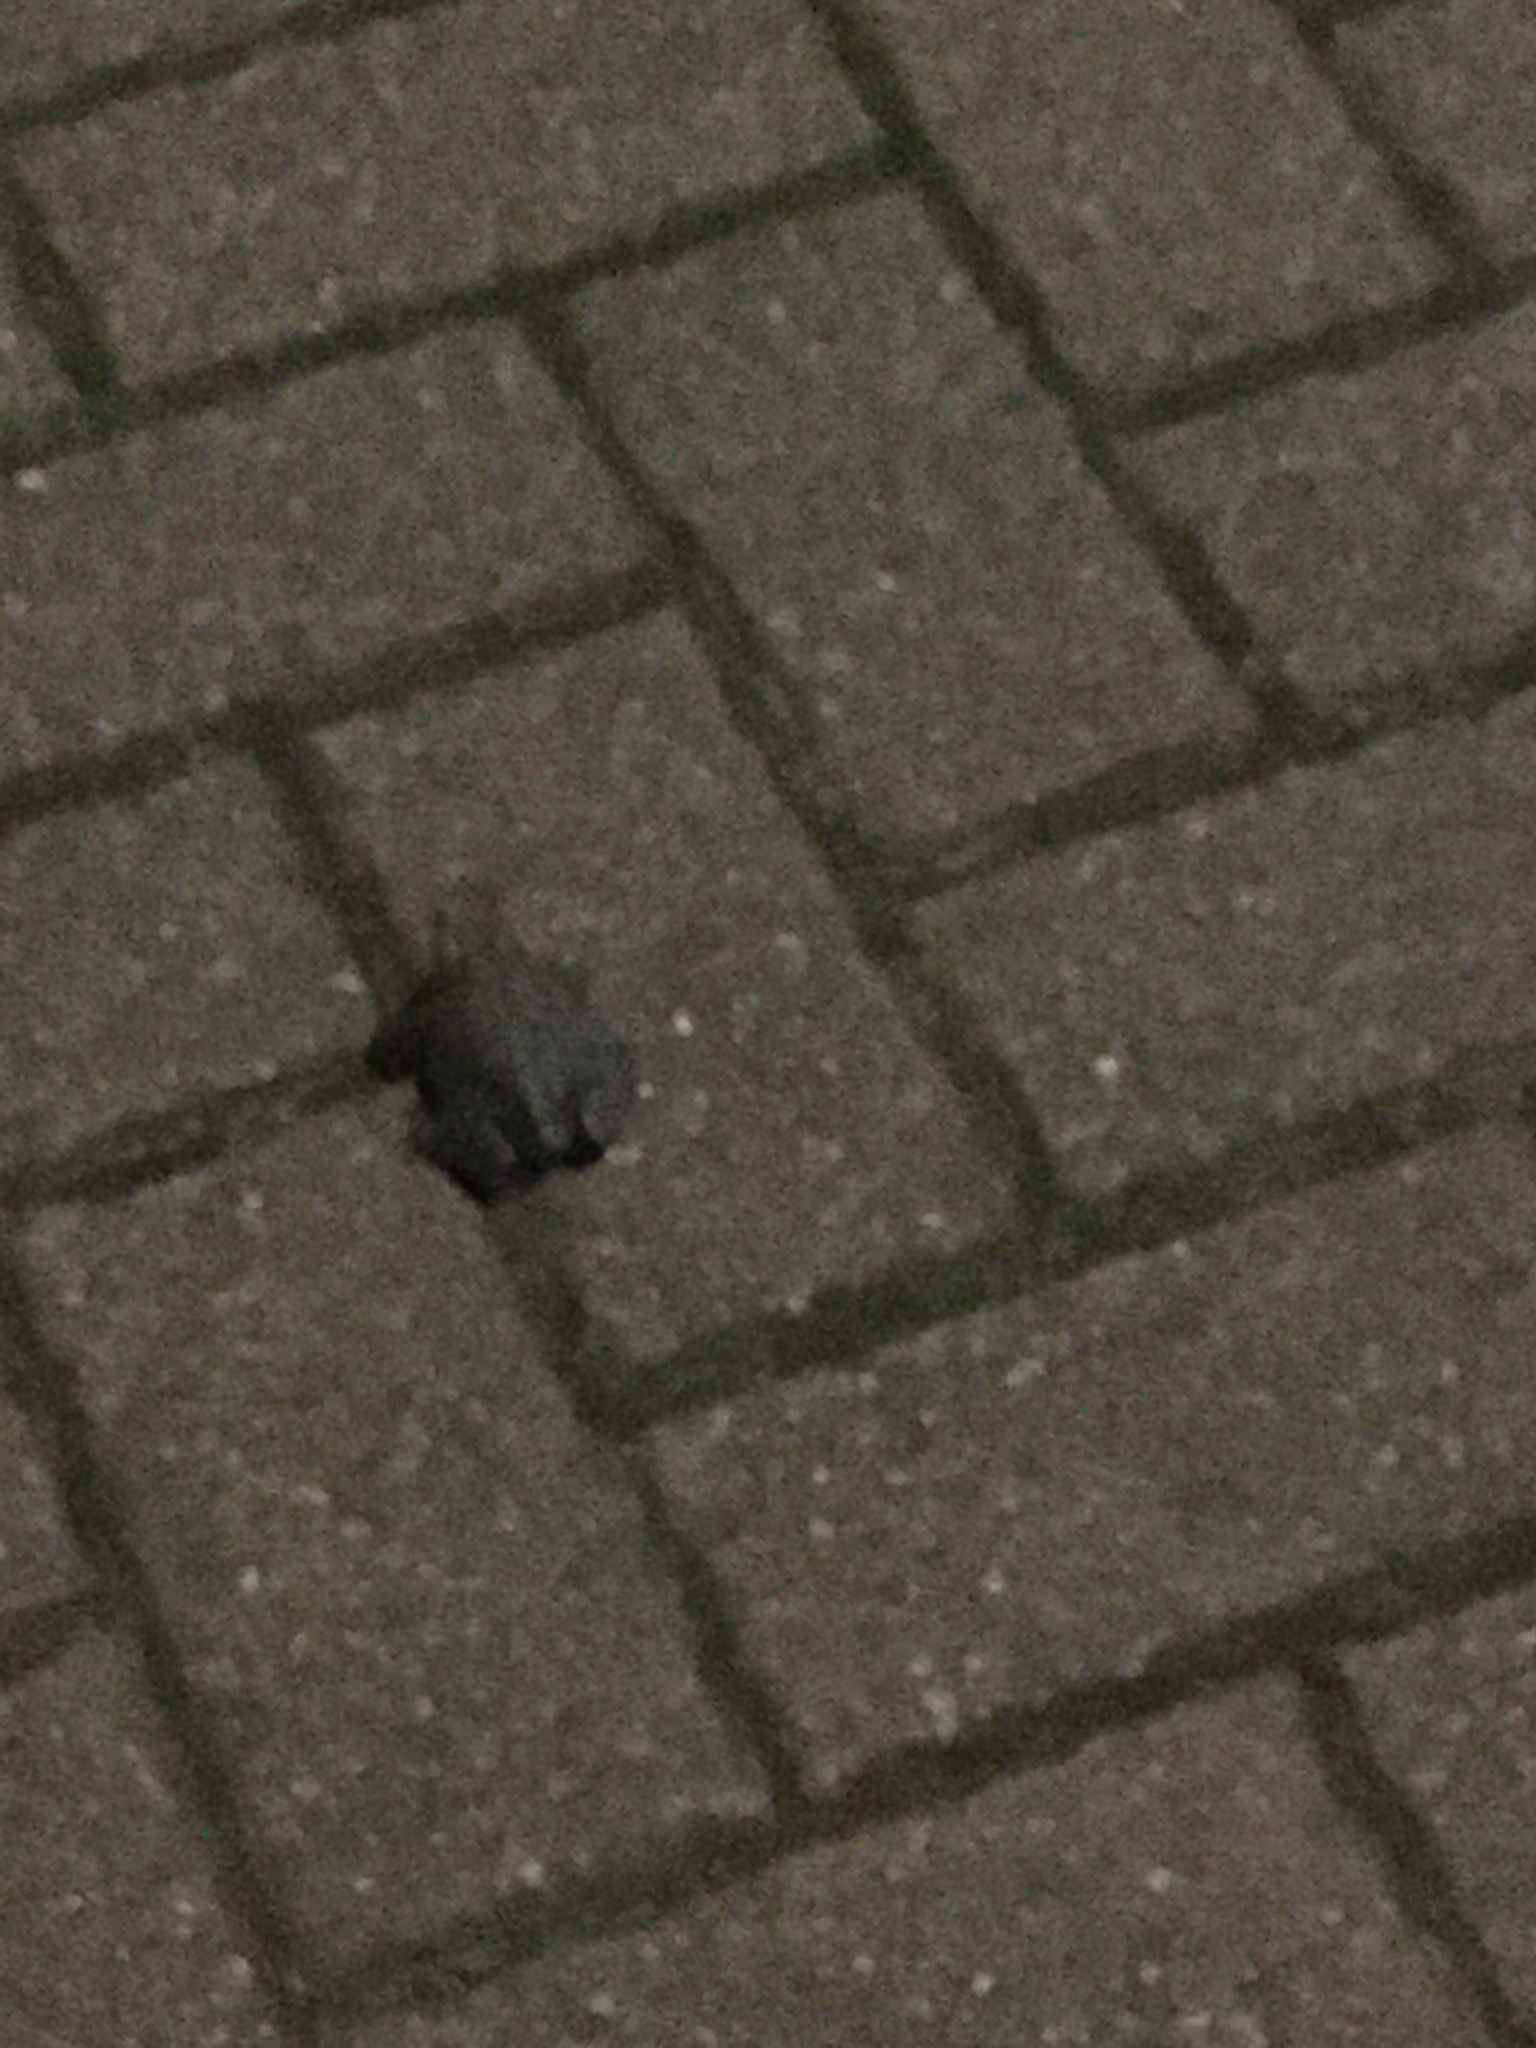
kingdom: Animalia
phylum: Chordata
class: Amphibia
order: Anura
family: Bufonidae
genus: Bufo
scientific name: Bufo bufo
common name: Common toad
